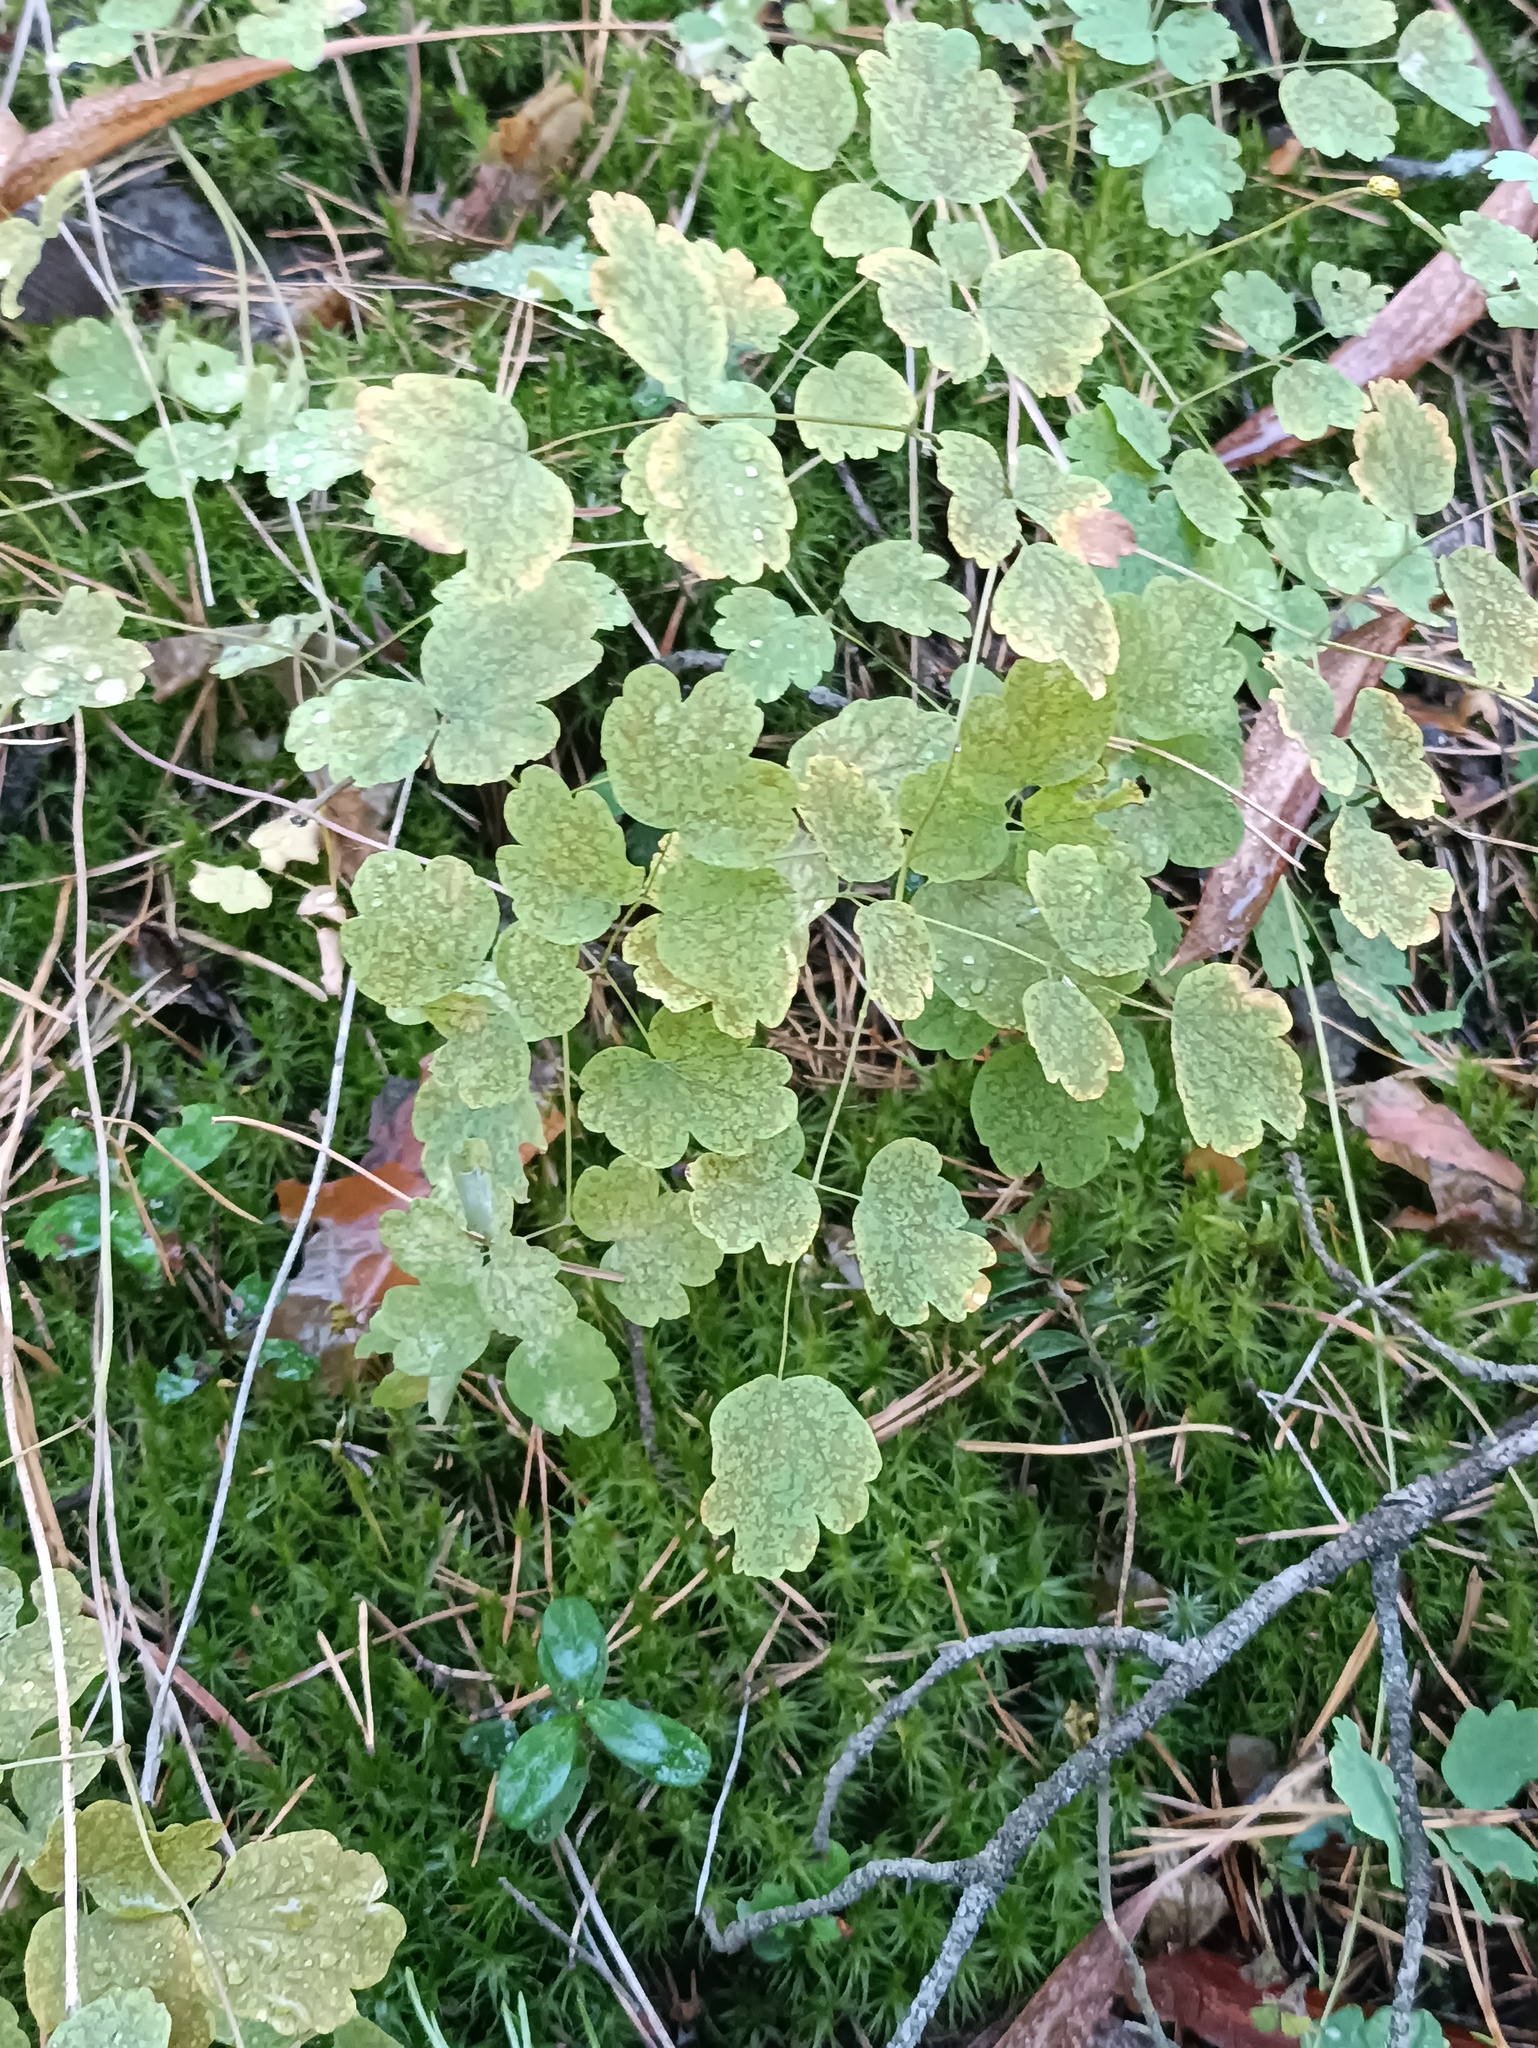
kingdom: Plantae
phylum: Tracheophyta
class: Magnoliopsida
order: Ranunculales
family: Ranunculaceae
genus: Thalictrum
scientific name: Thalictrum minus
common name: Lesser meadow-rue
